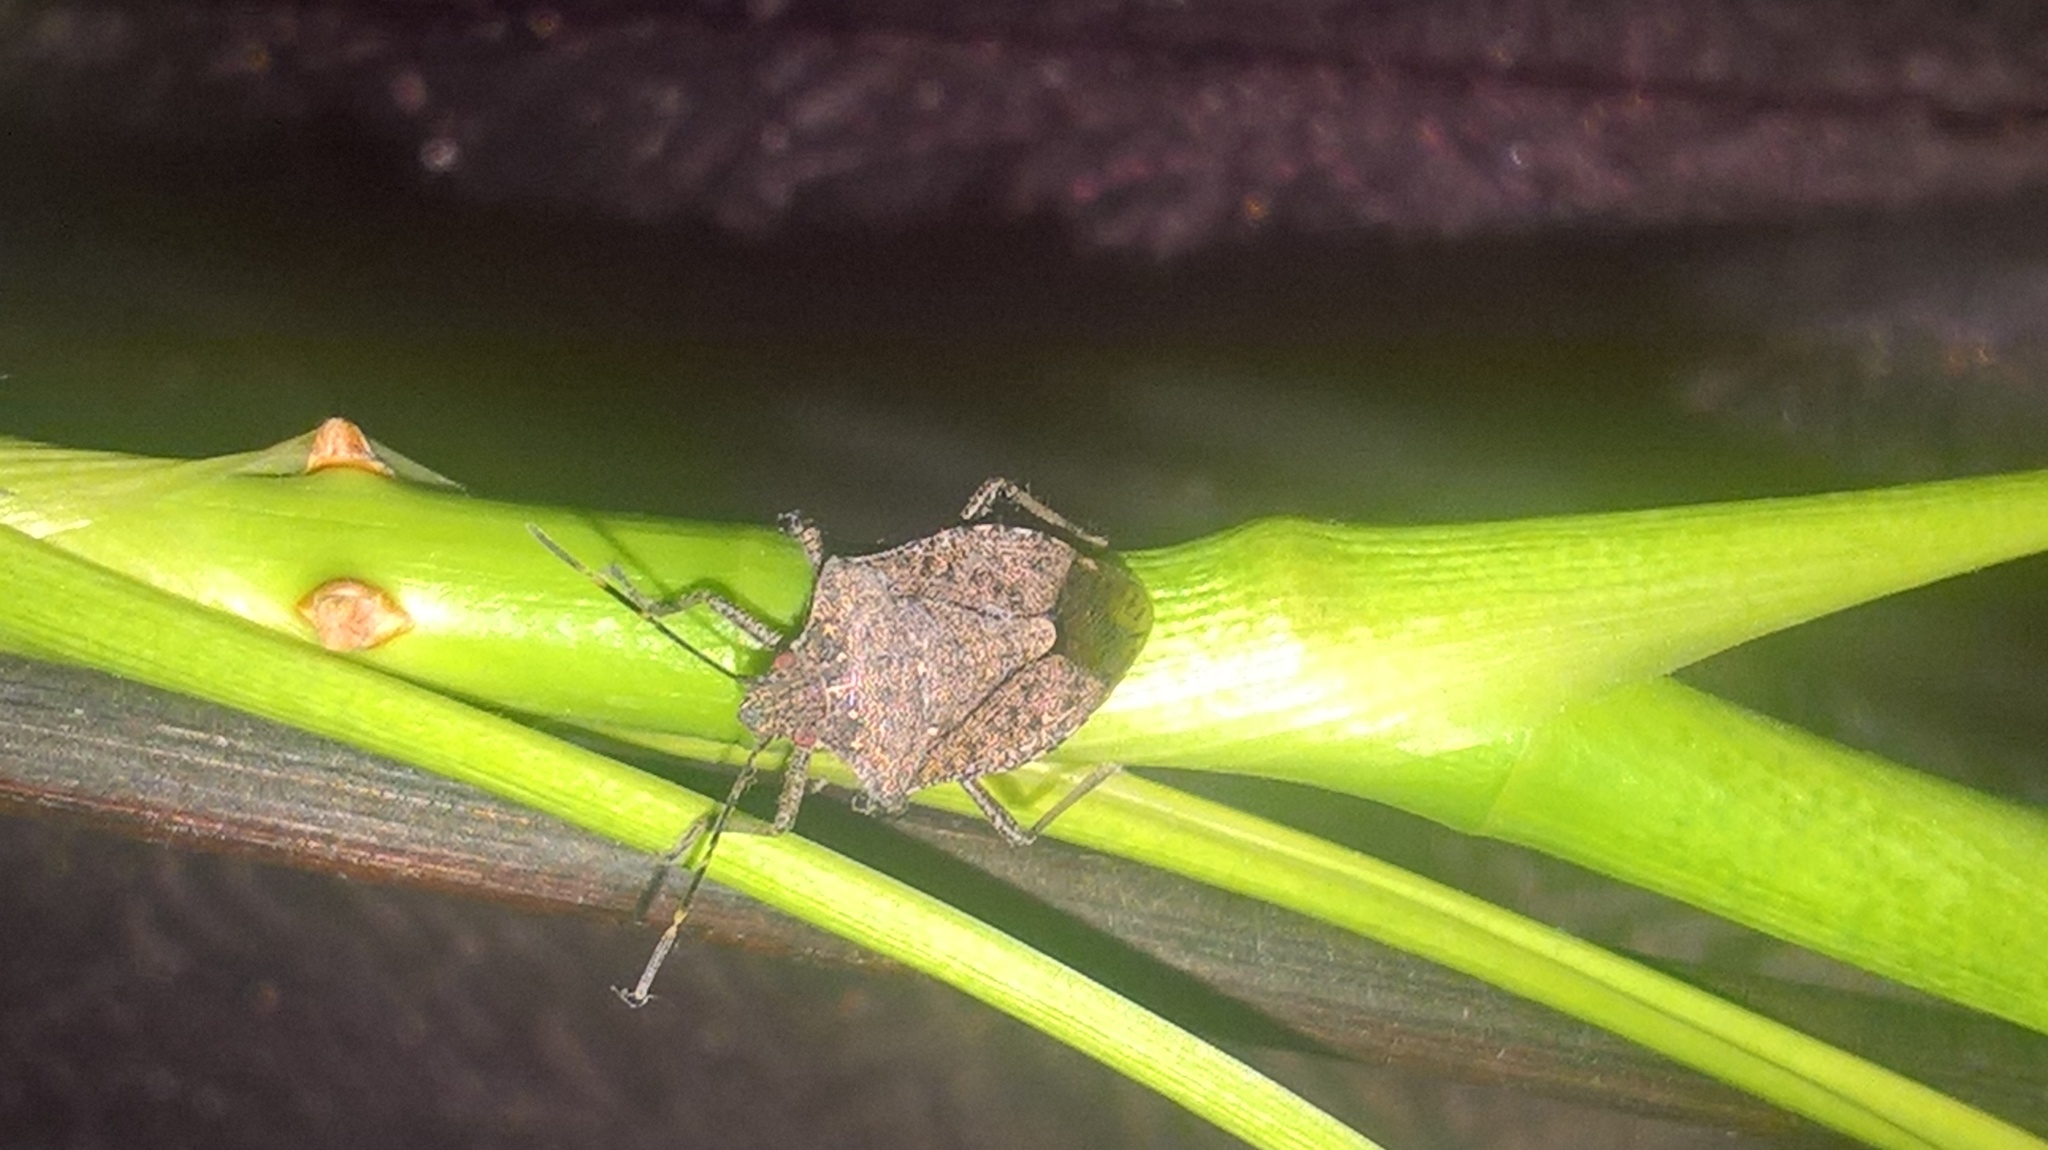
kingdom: Animalia
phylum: Arthropoda
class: Insecta
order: Hemiptera
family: Pentatomidae
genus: Halyomorpha
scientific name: Halyomorpha halys
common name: Brown marmorated stink bug
